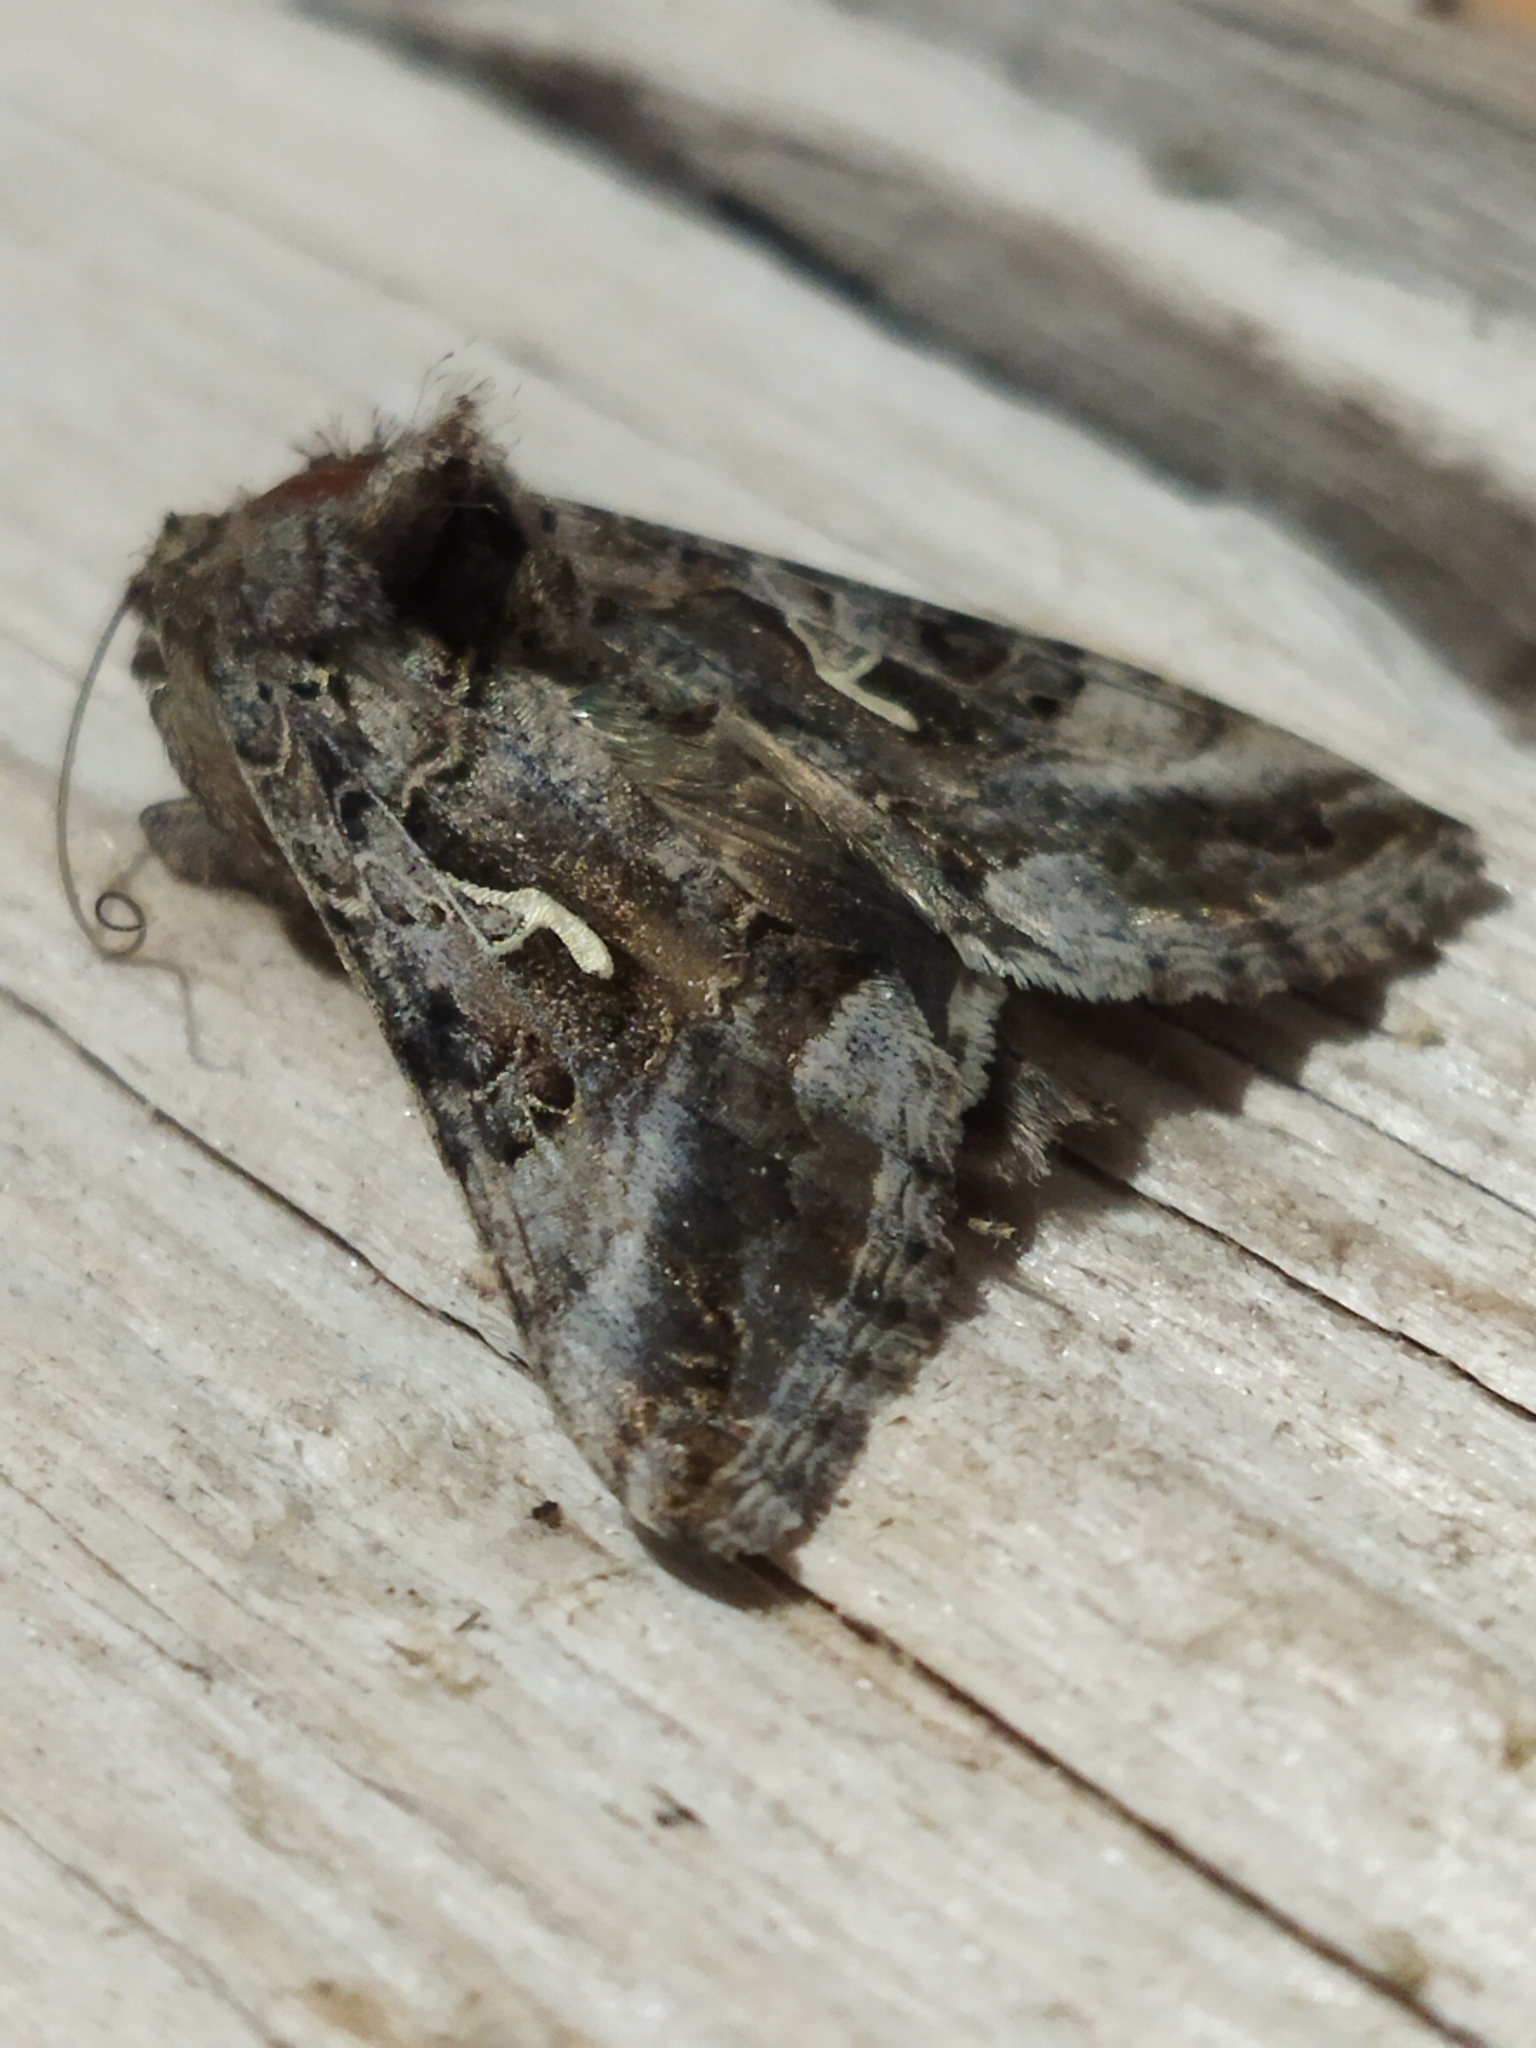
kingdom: Animalia
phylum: Arthropoda
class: Insecta
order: Lepidoptera
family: Noctuidae
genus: Autographa
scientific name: Autographa gamma
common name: Silver y
